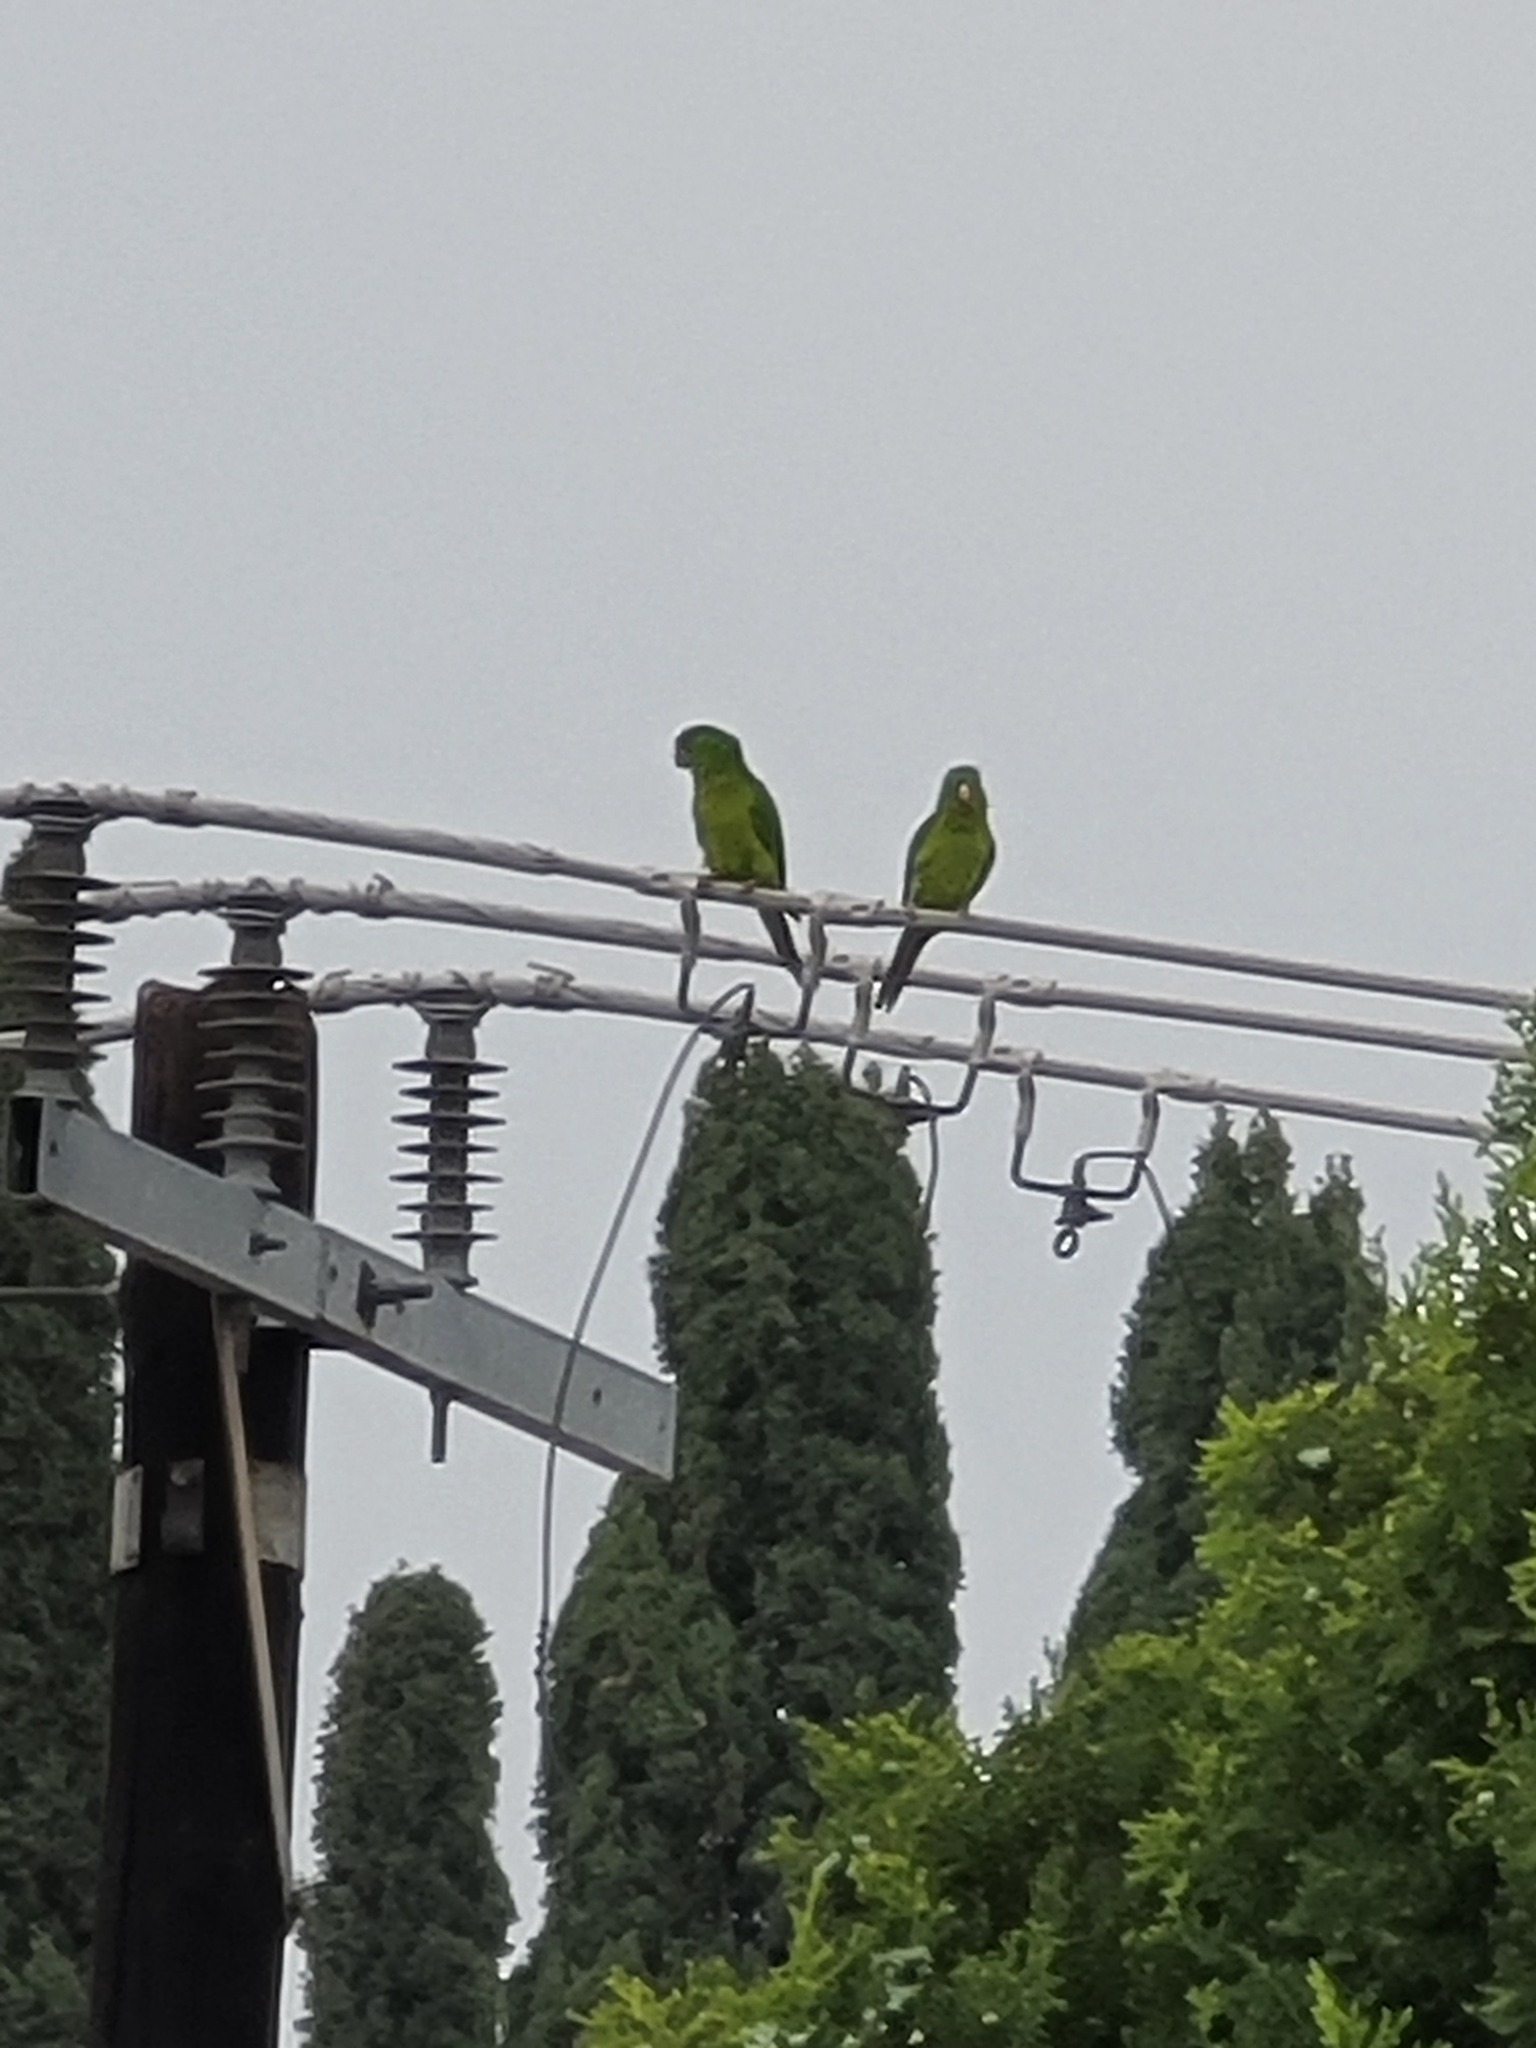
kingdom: Animalia
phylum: Chordata
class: Aves
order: Psittaciformes
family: Psittacidae
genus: Aratinga
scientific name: Aratinga holochlora
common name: Green parakeet
